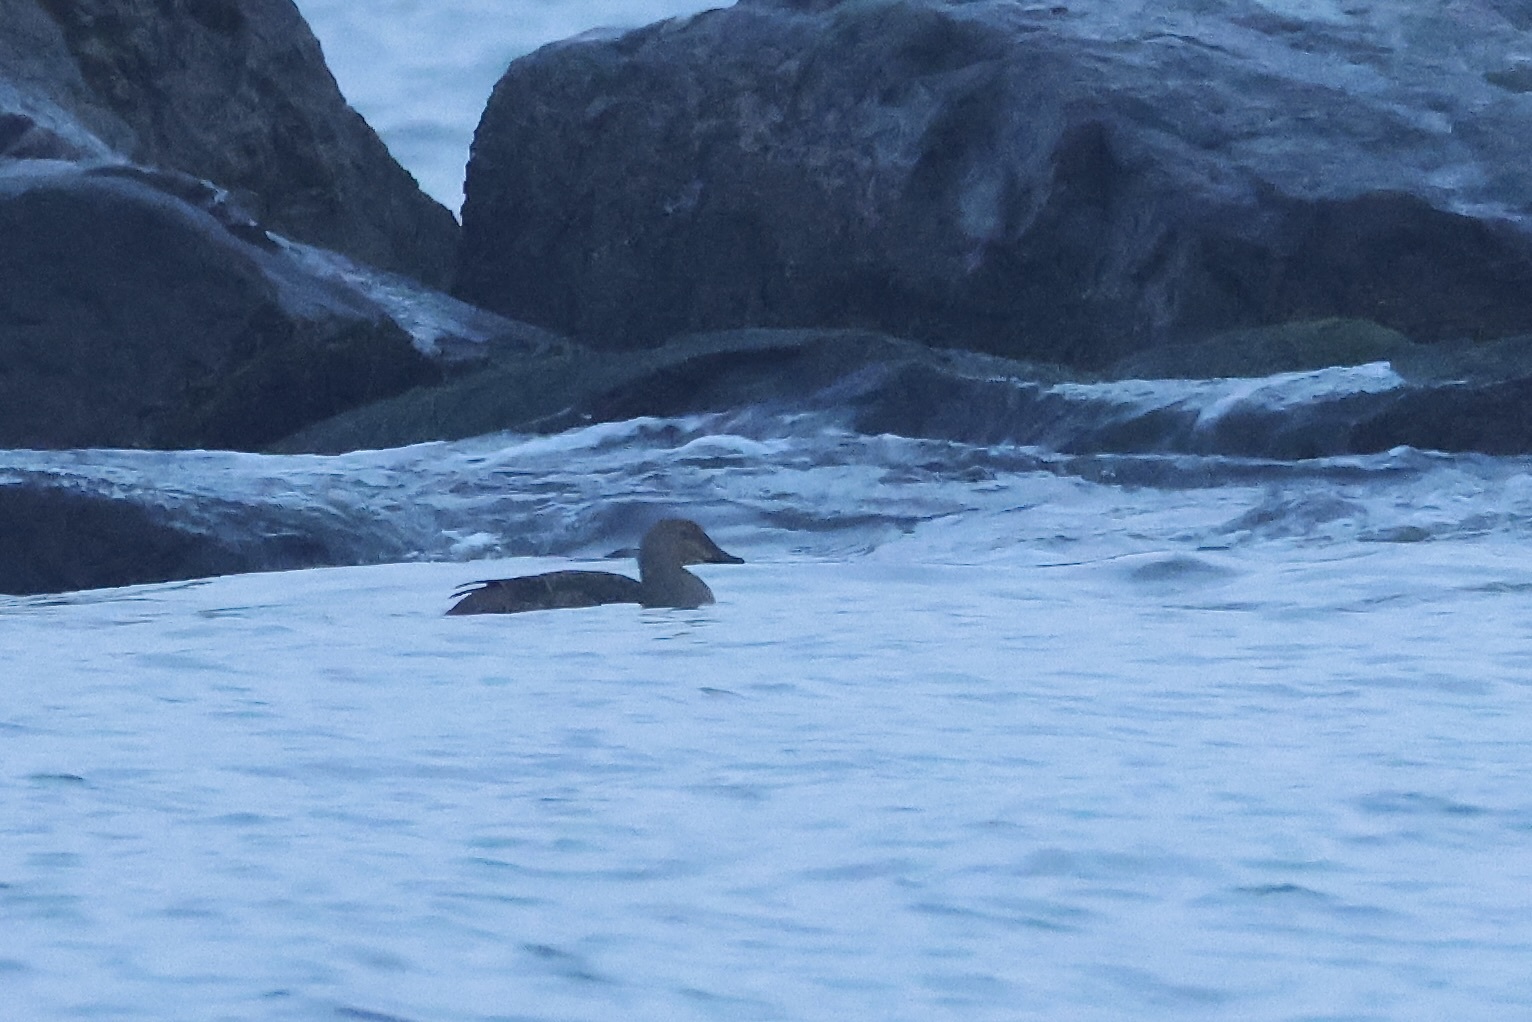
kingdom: Animalia
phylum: Chordata
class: Aves
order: Anseriformes
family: Anatidae
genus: Somateria
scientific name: Somateria spectabilis
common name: King eider
